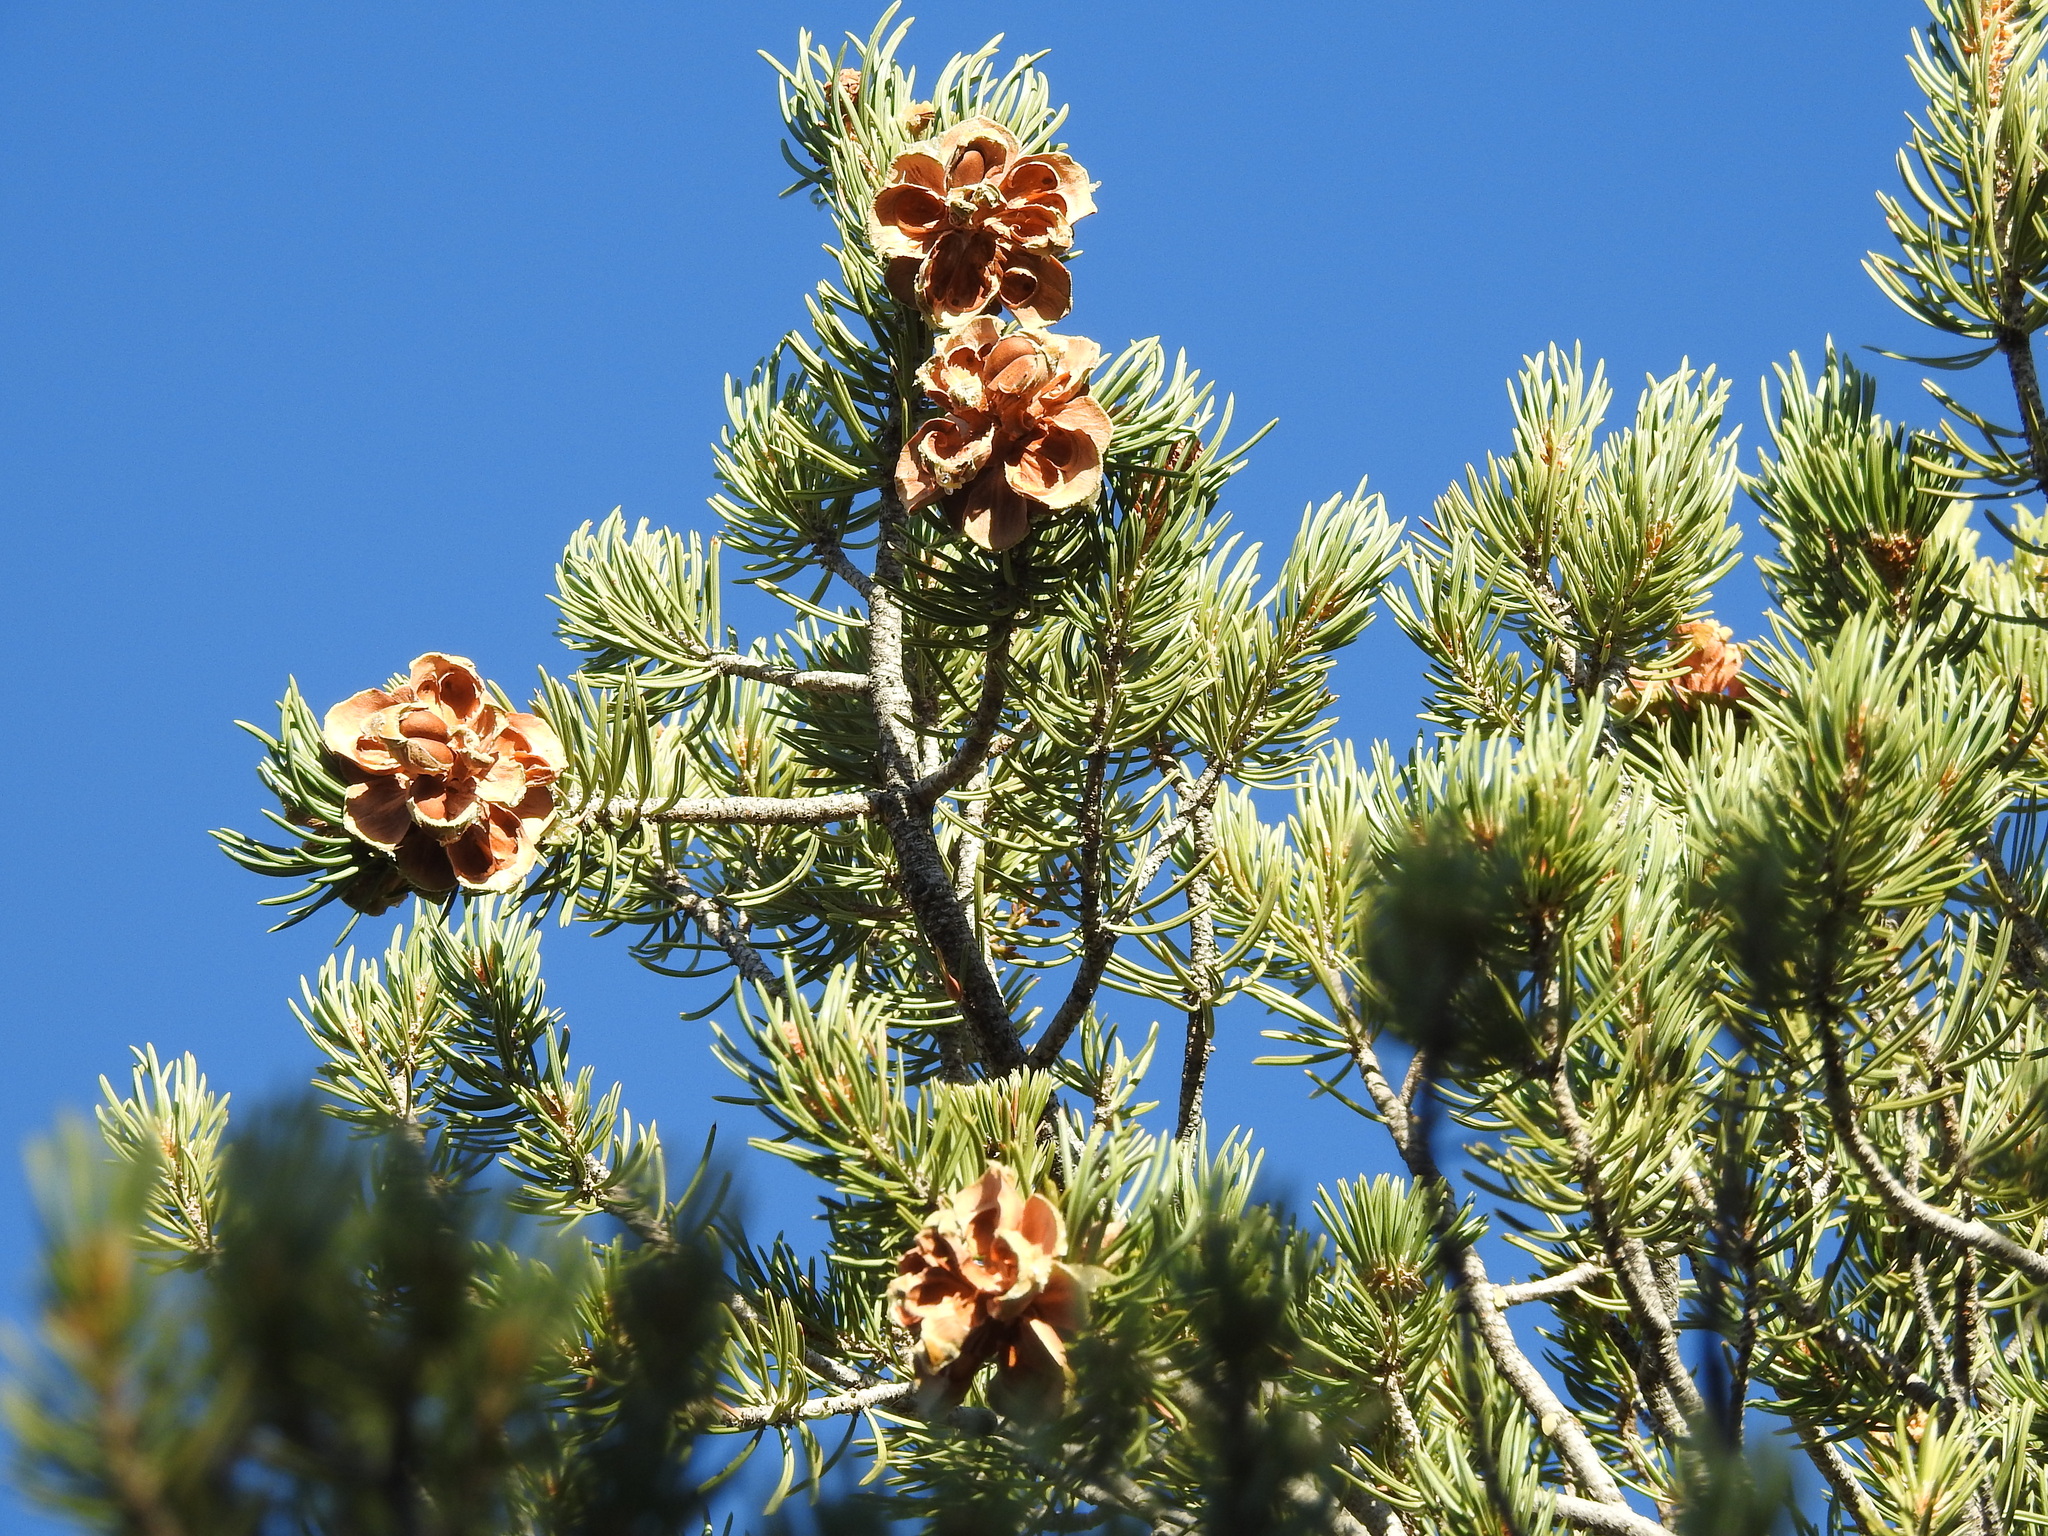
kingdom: Plantae
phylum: Tracheophyta
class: Pinopsida
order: Pinales
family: Pinaceae
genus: Pinus
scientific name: Pinus edulis
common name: Colorado pinyon
